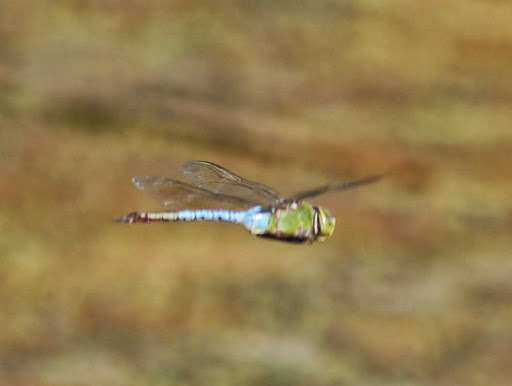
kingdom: Animalia
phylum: Arthropoda
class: Insecta
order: Odonata
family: Aeshnidae
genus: Anax
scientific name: Anax junius
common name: Common green darner
